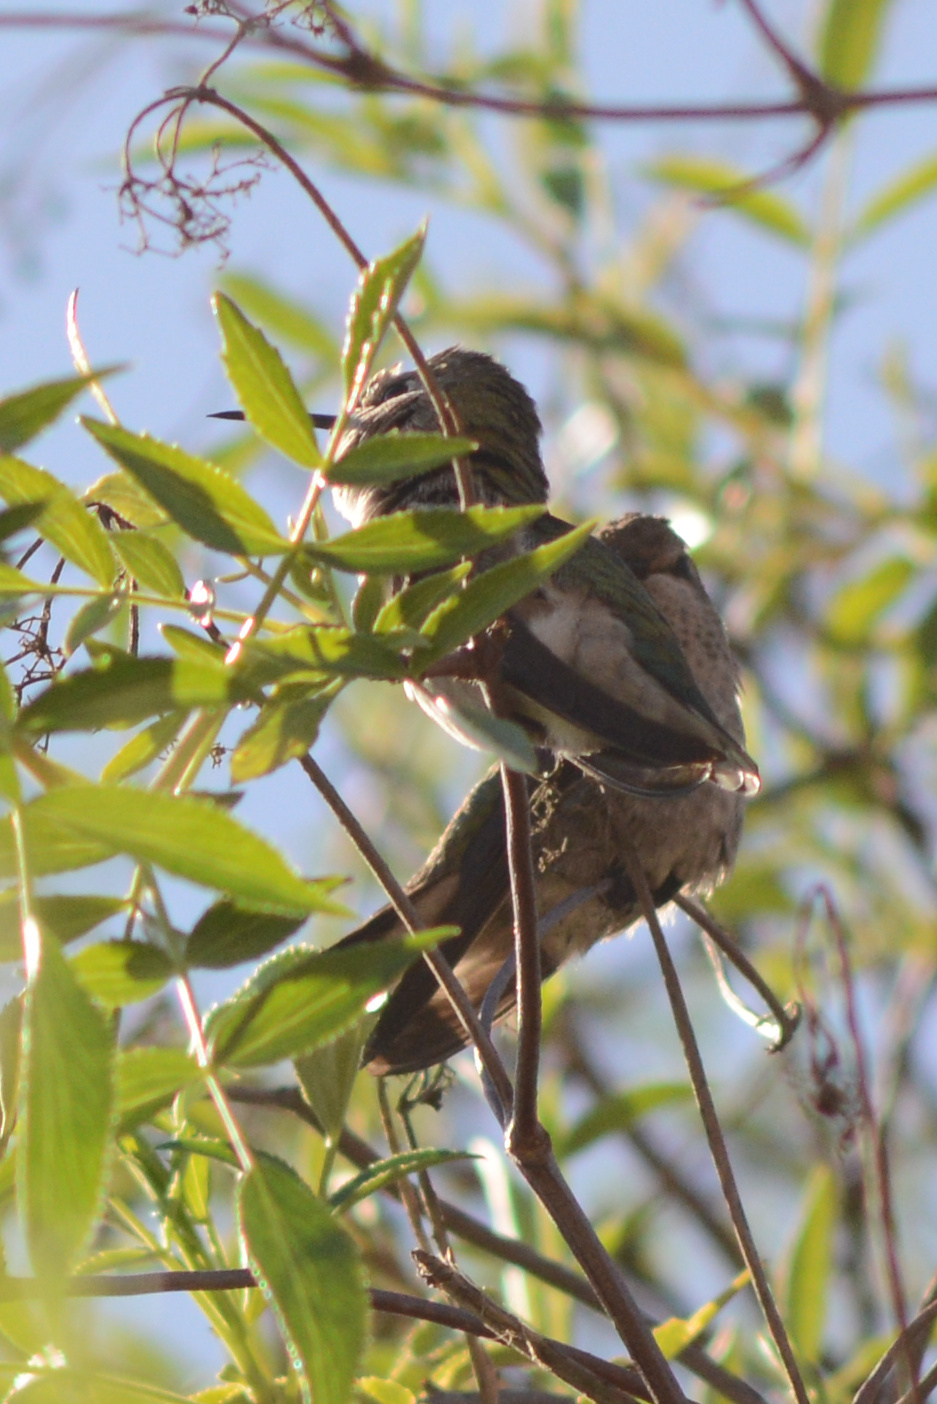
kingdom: Animalia
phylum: Chordata
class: Aves
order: Apodiformes
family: Trochilidae
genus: Calypte
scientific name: Calypte anna
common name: Anna's hummingbird
